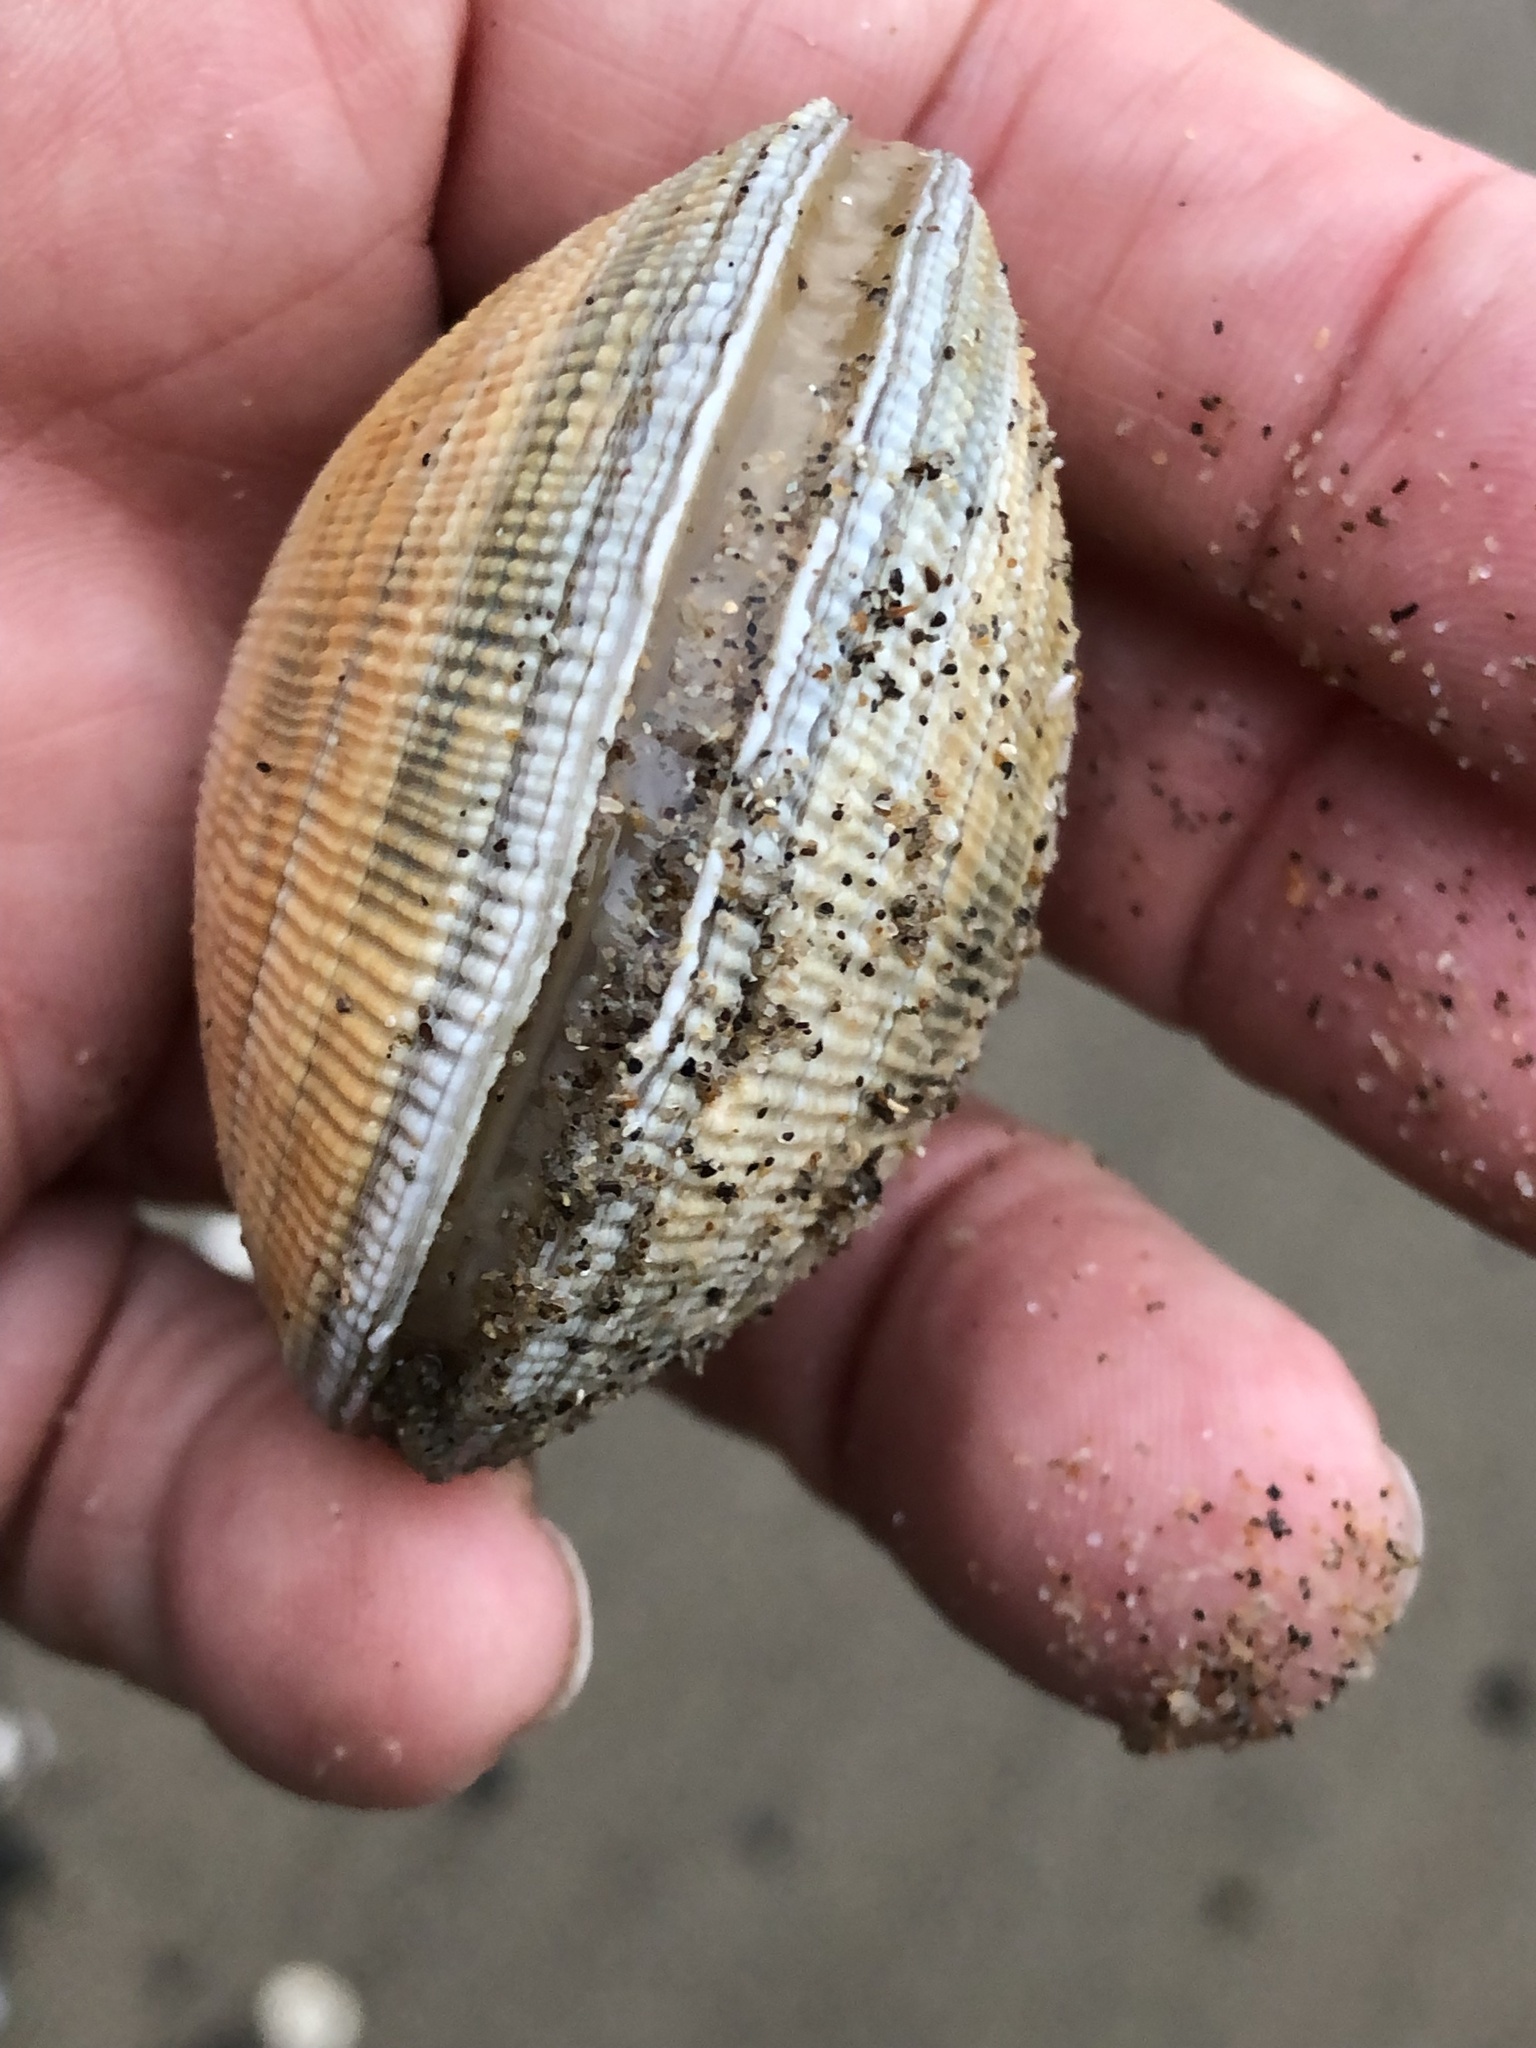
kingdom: Animalia
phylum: Mollusca
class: Bivalvia
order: Venerida
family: Veneridae
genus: Leukoma
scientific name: Leukoma staminea
